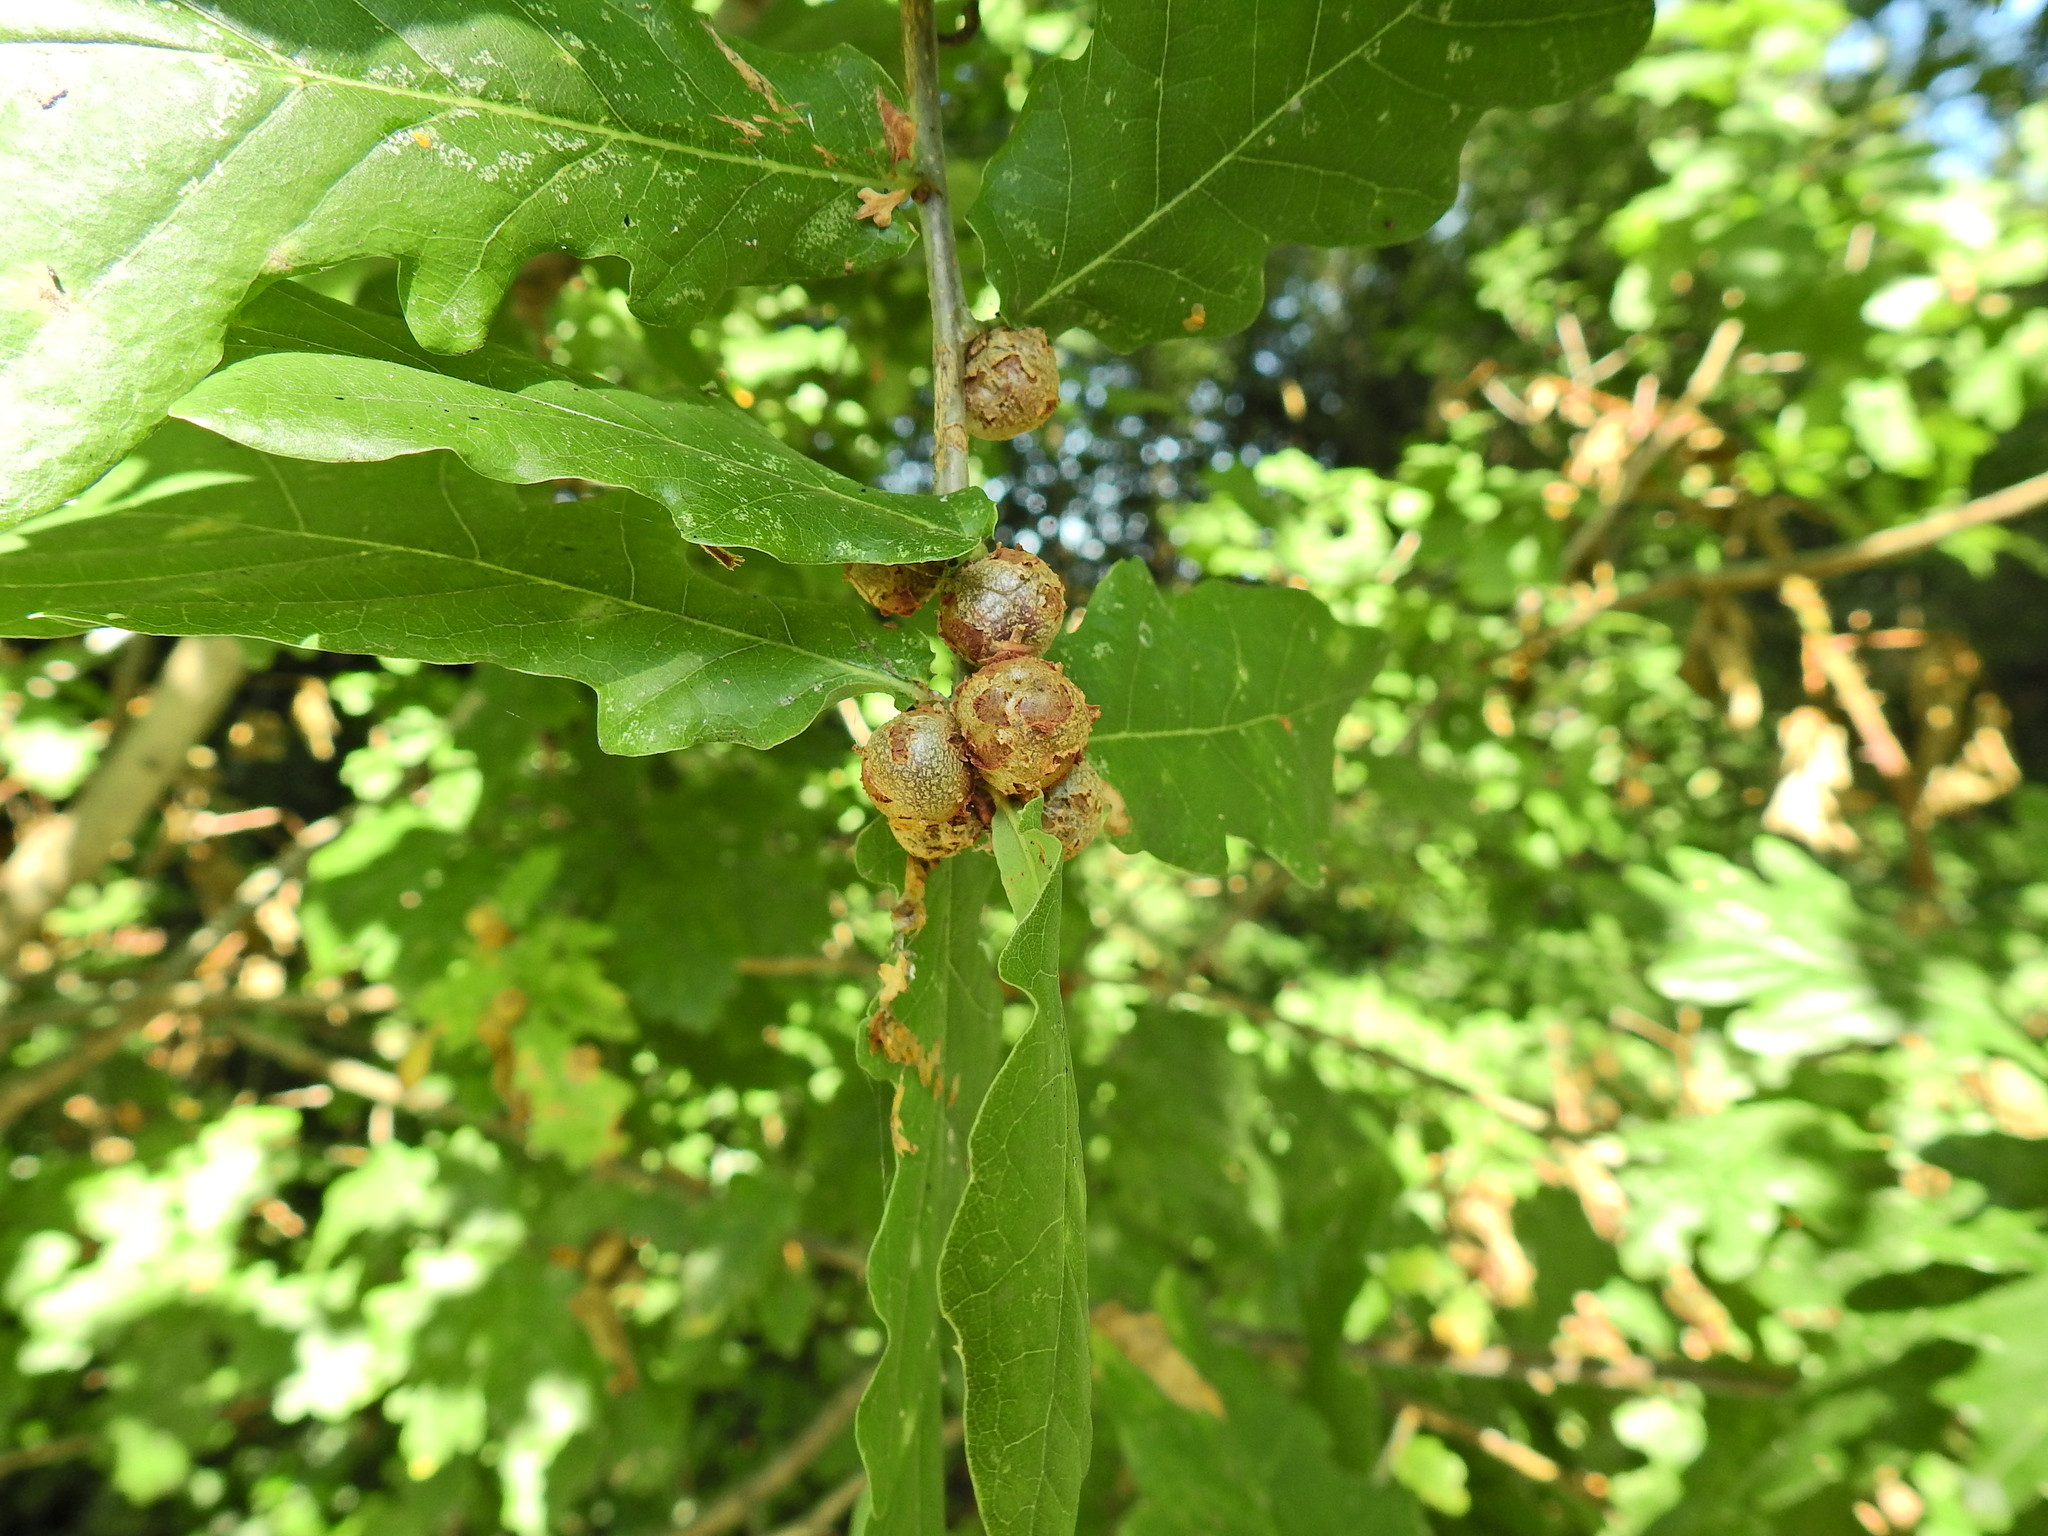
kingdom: Animalia
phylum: Arthropoda
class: Insecta
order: Hymenoptera
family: Cynipidae
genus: Andricus
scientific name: Andricus lignicolus
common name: Cola-nut gall
